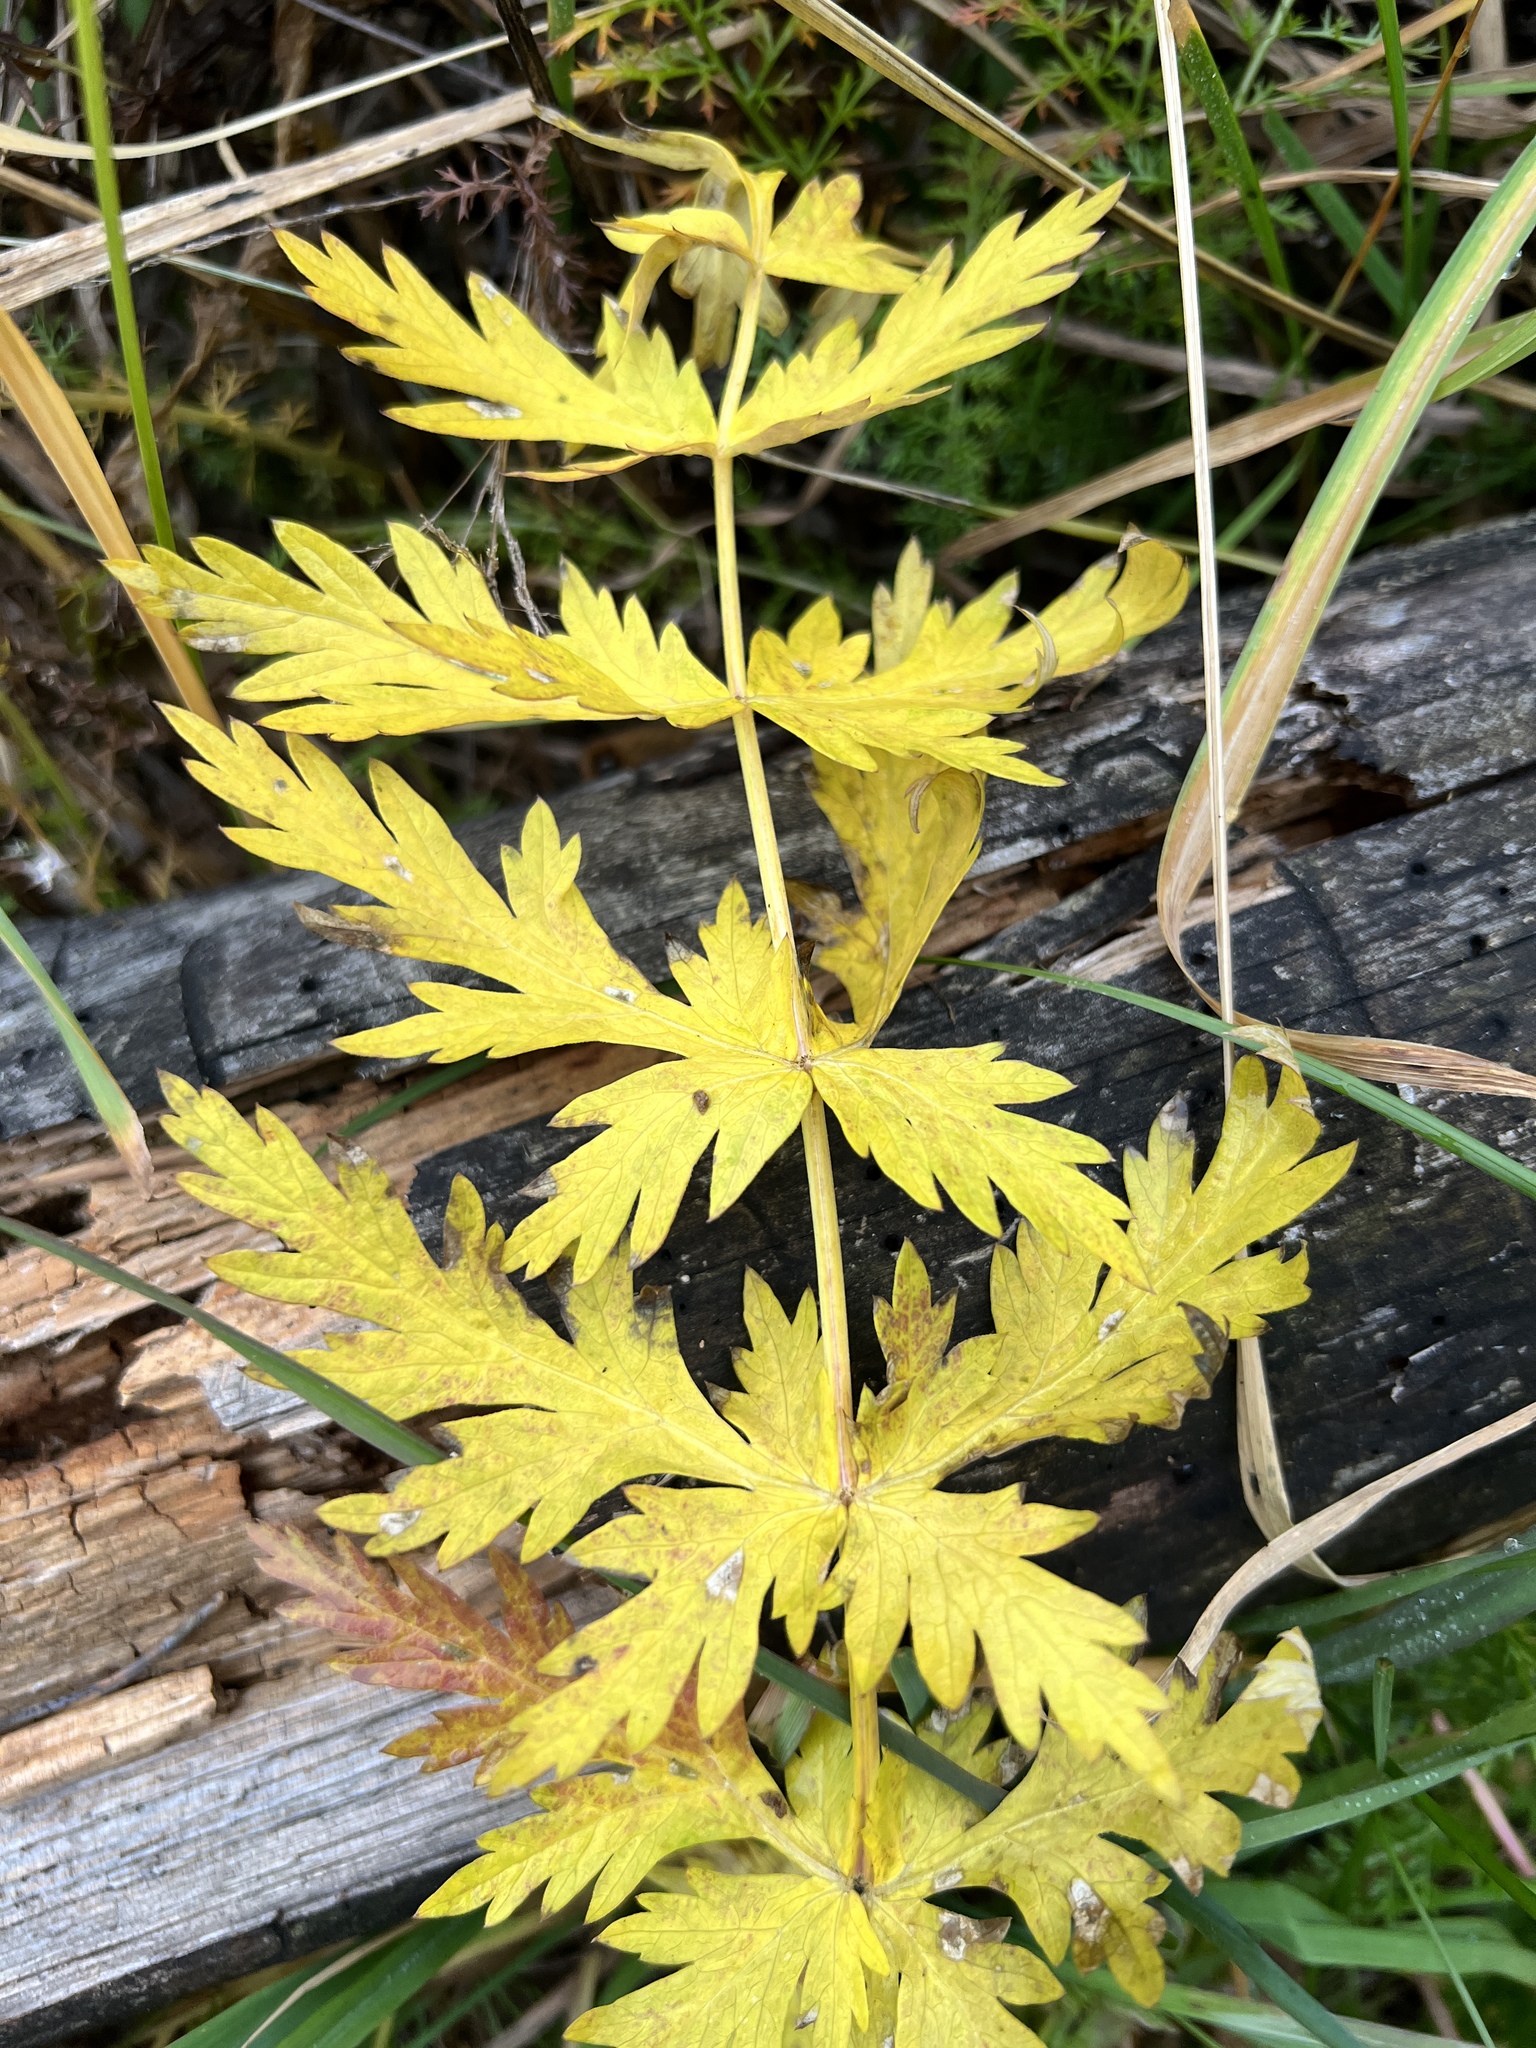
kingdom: Plantae
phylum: Tracheophyta
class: Magnoliopsida
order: Apiales
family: Apiaceae
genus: Seseli
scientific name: Seseli libanotis
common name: Mooncarrot
